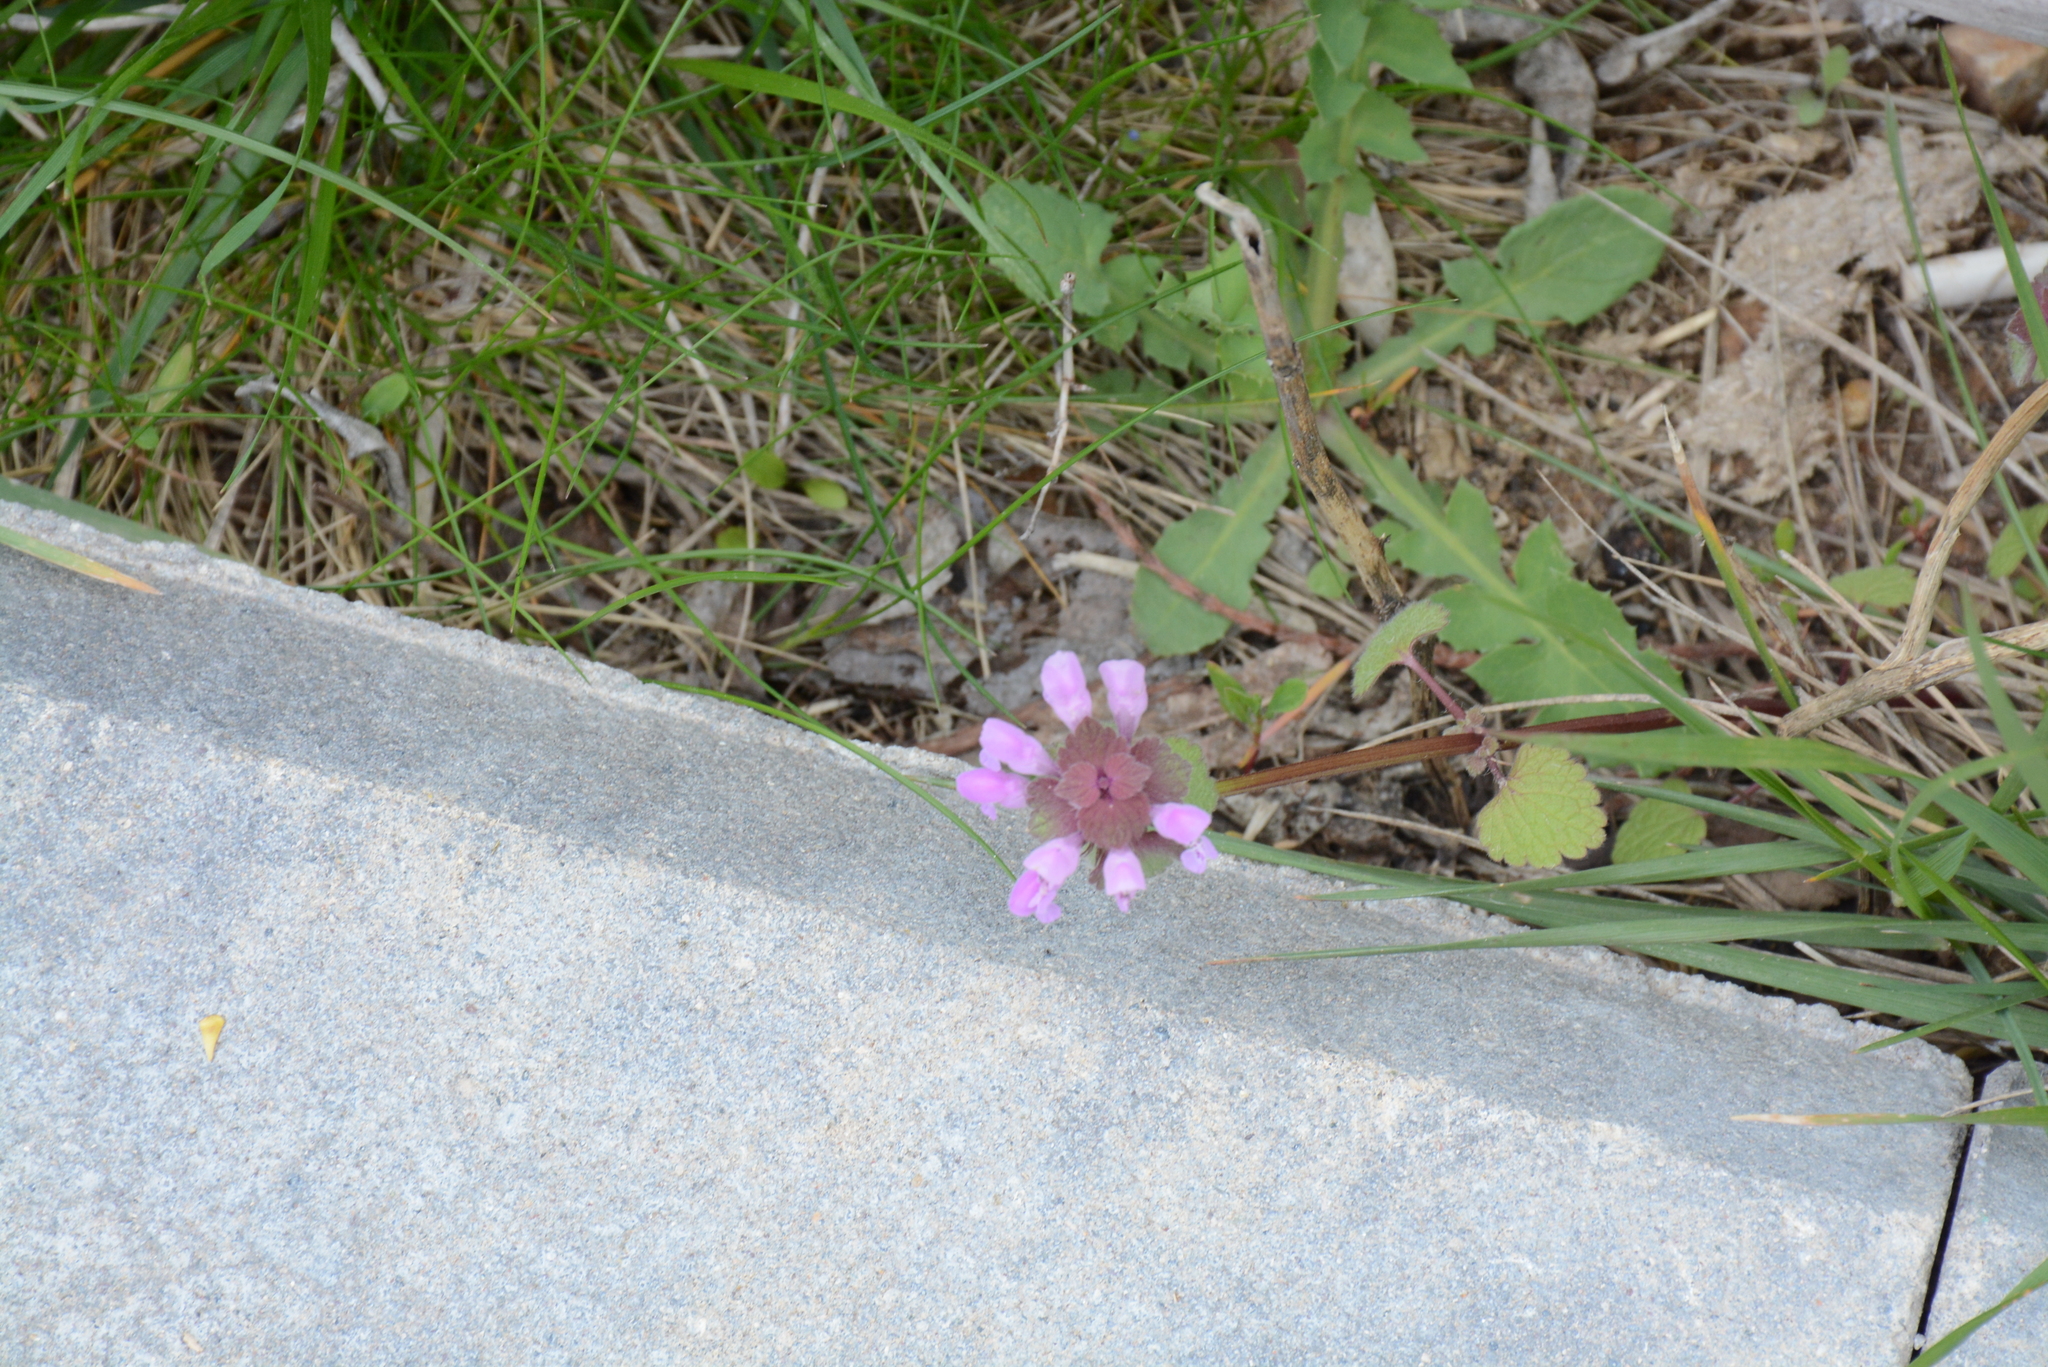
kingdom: Plantae
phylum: Tracheophyta
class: Magnoliopsida
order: Lamiales
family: Lamiaceae
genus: Lamium
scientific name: Lamium purpureum
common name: Red dead-nettle
